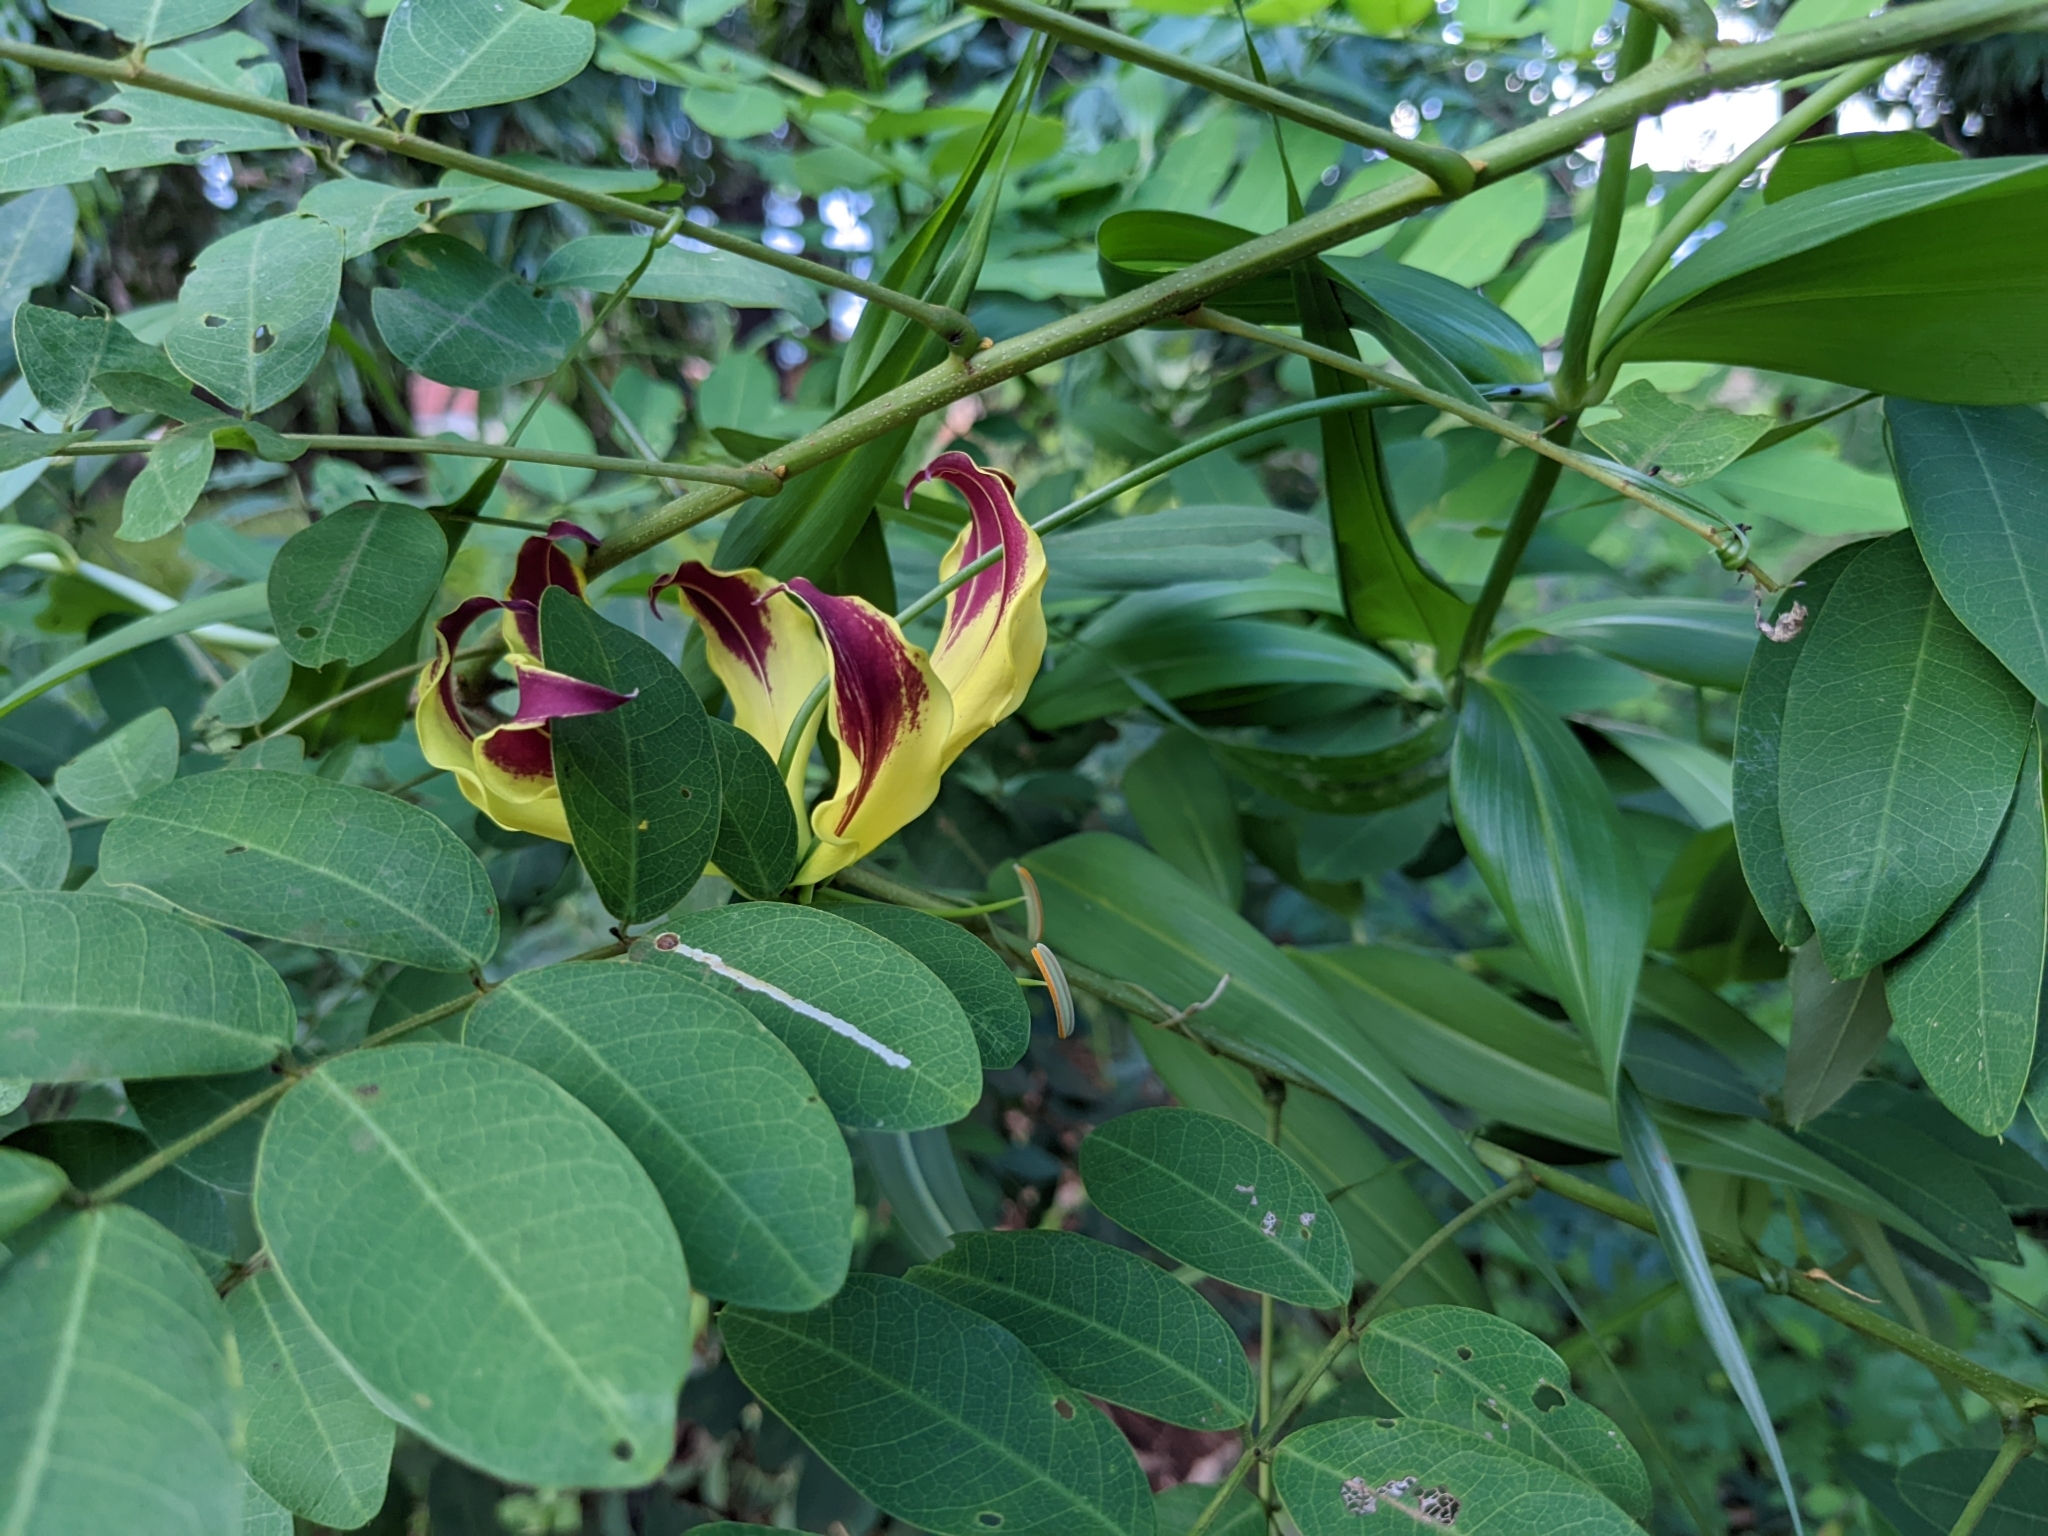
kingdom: Plantae
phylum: Tracheophyta
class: Liliopsida
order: Liliales
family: Colchicaceae
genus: Gloriosa
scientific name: Gloriosa superba
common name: Flame lily
